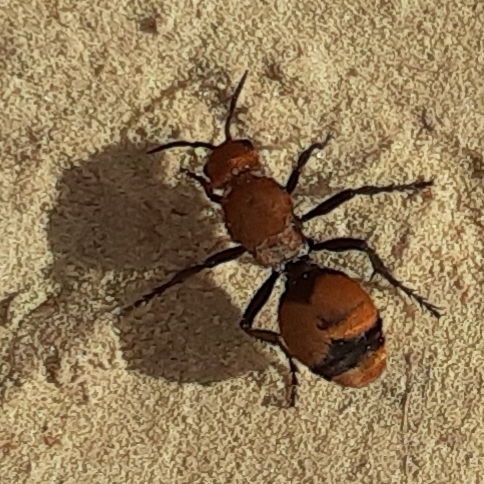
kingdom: Animalia
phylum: Arthropoda
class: Insecta
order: Hymenoptera
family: Mutillidae
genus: Dasymutilla
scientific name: Dasymutilla occidentalis
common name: Common eastern velvet ant
